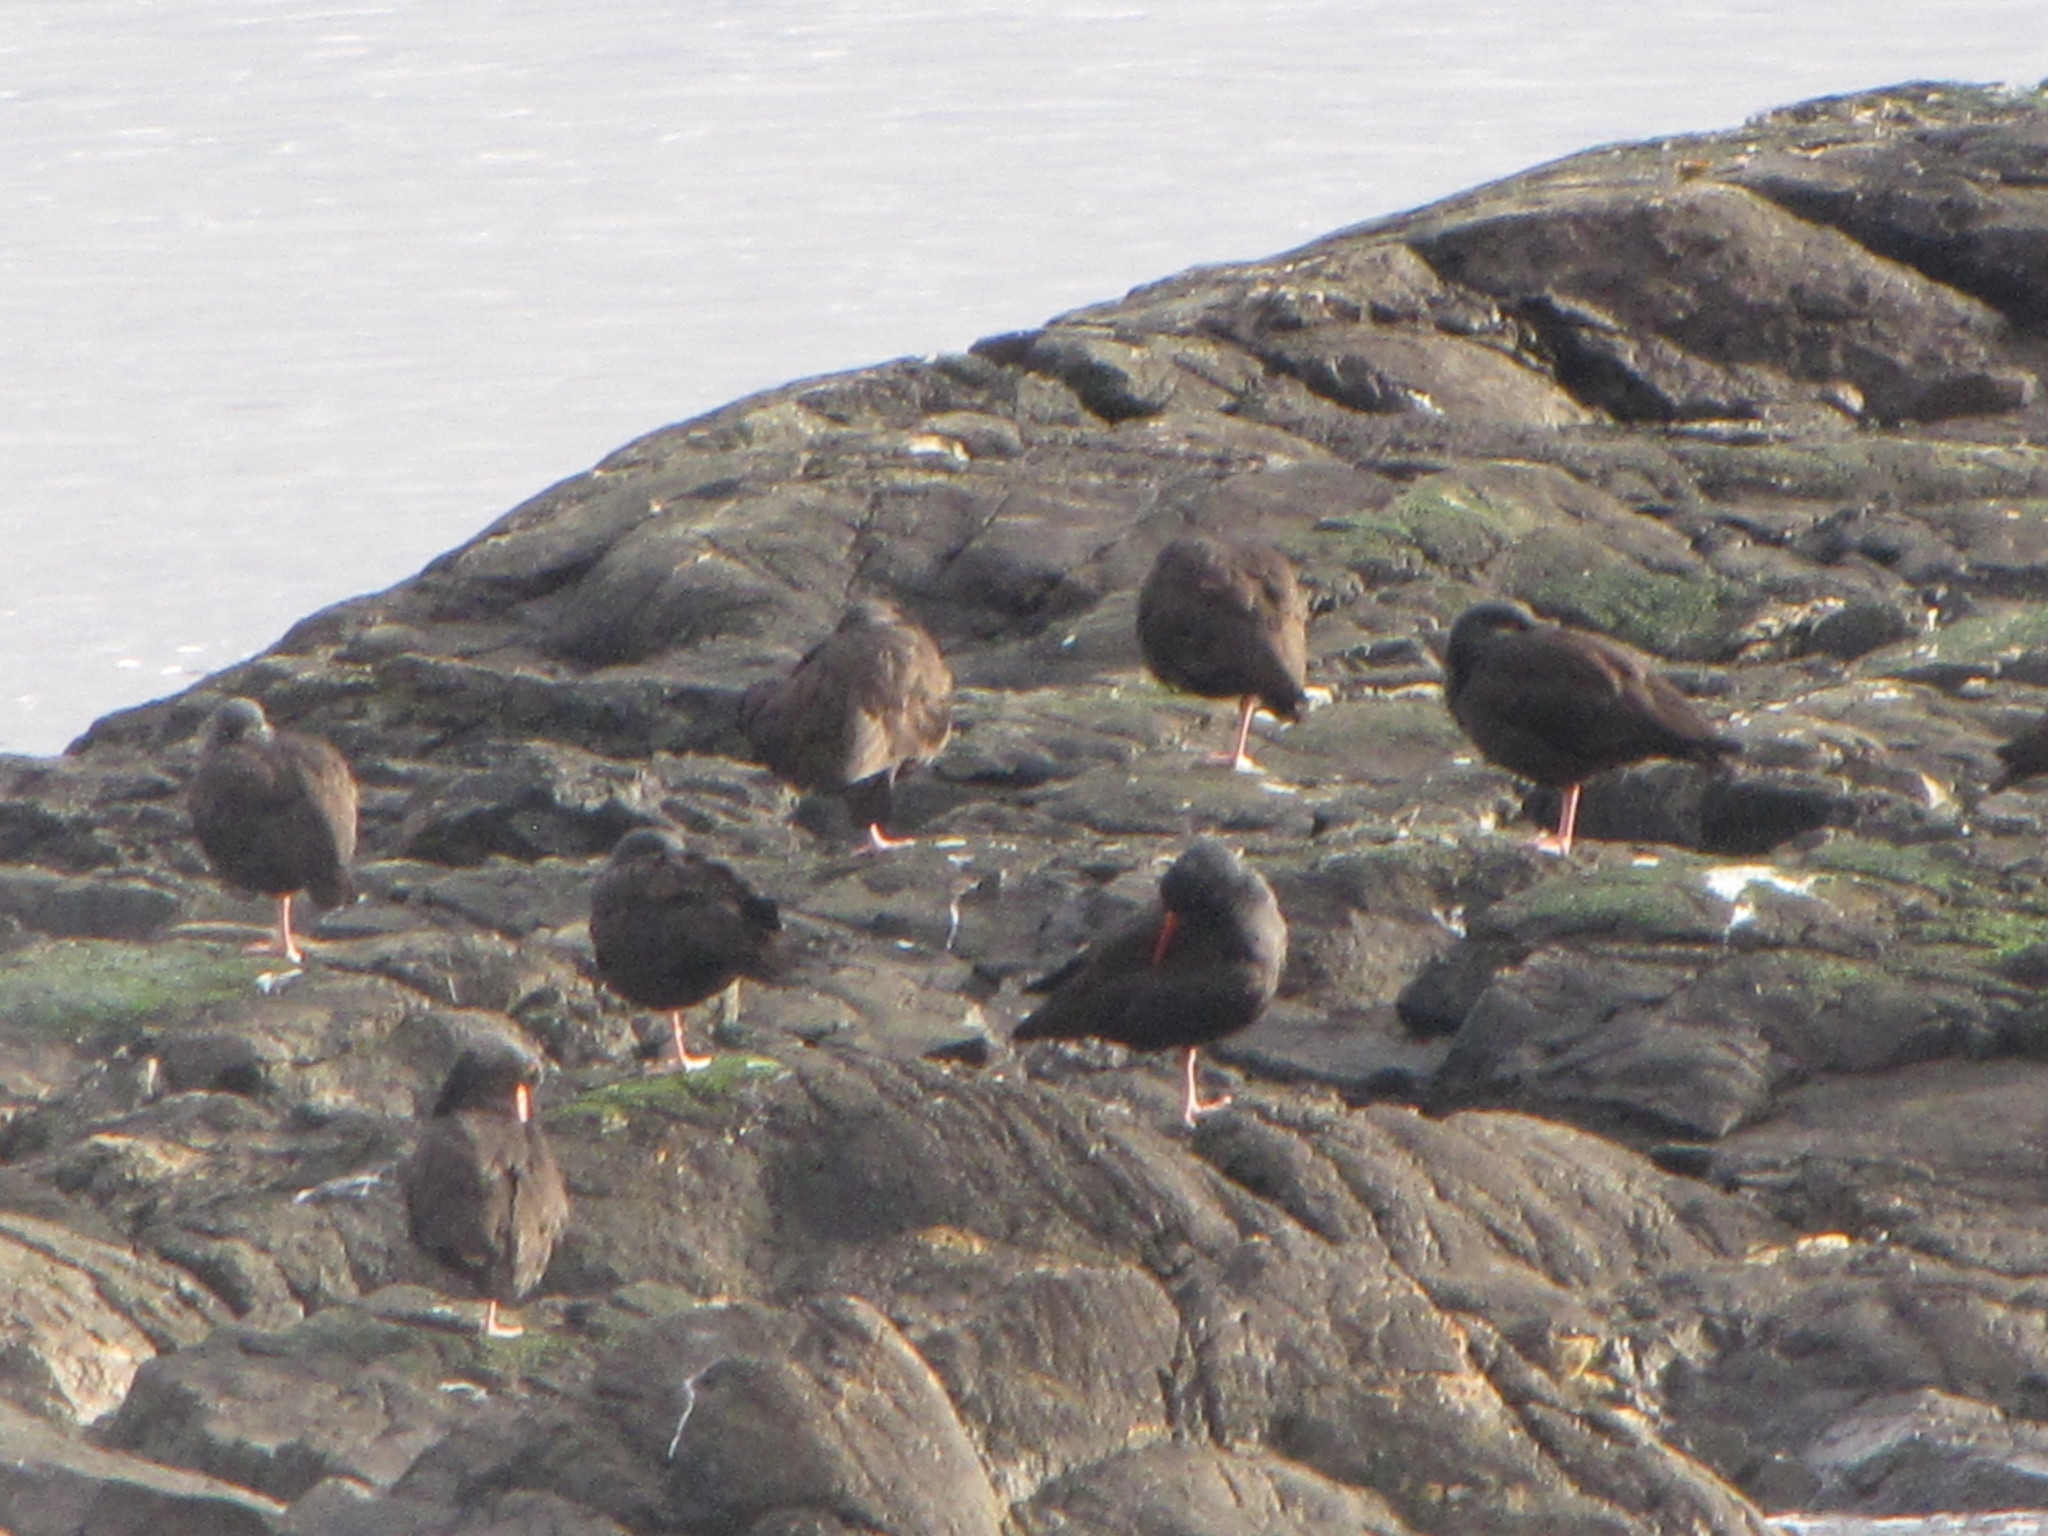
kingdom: Animalia
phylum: Chordata
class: Aves
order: Charadriiformes
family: Haematopodidae
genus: Haematopus
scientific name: Haematopus bachmani
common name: Black oystercatcher
